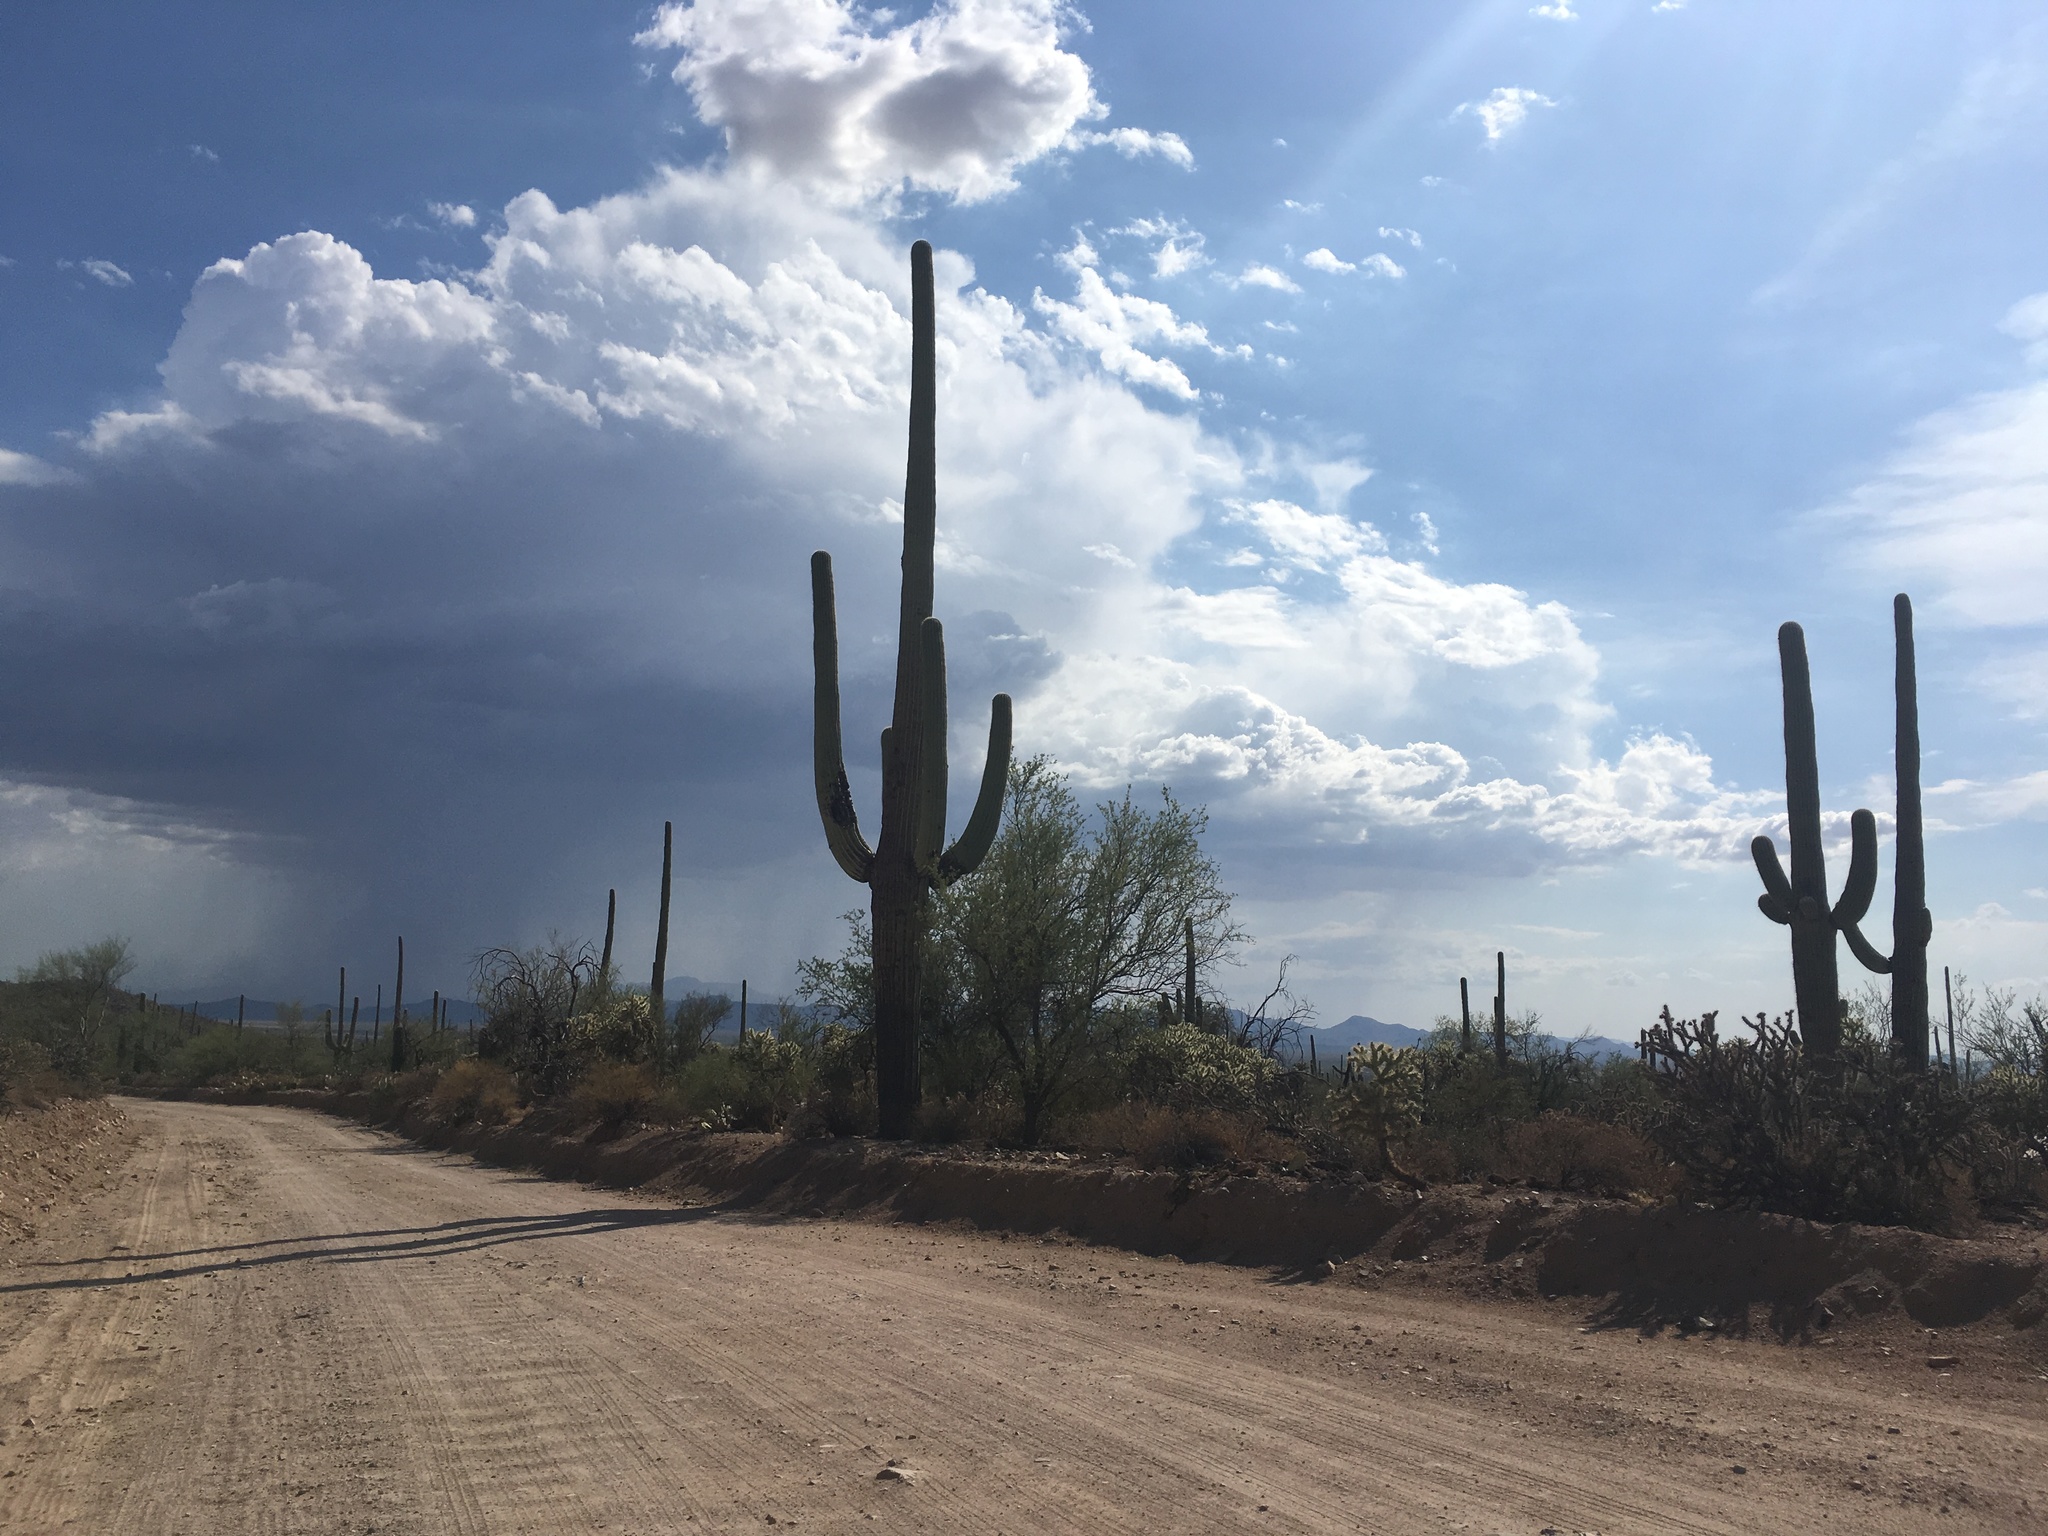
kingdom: Plantae
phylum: Tracheophyta
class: Magnoliopsida
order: Caryophyllales
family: Cactaceae
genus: Carnegiea
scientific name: Carnegiea gigantea
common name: Saguaro
